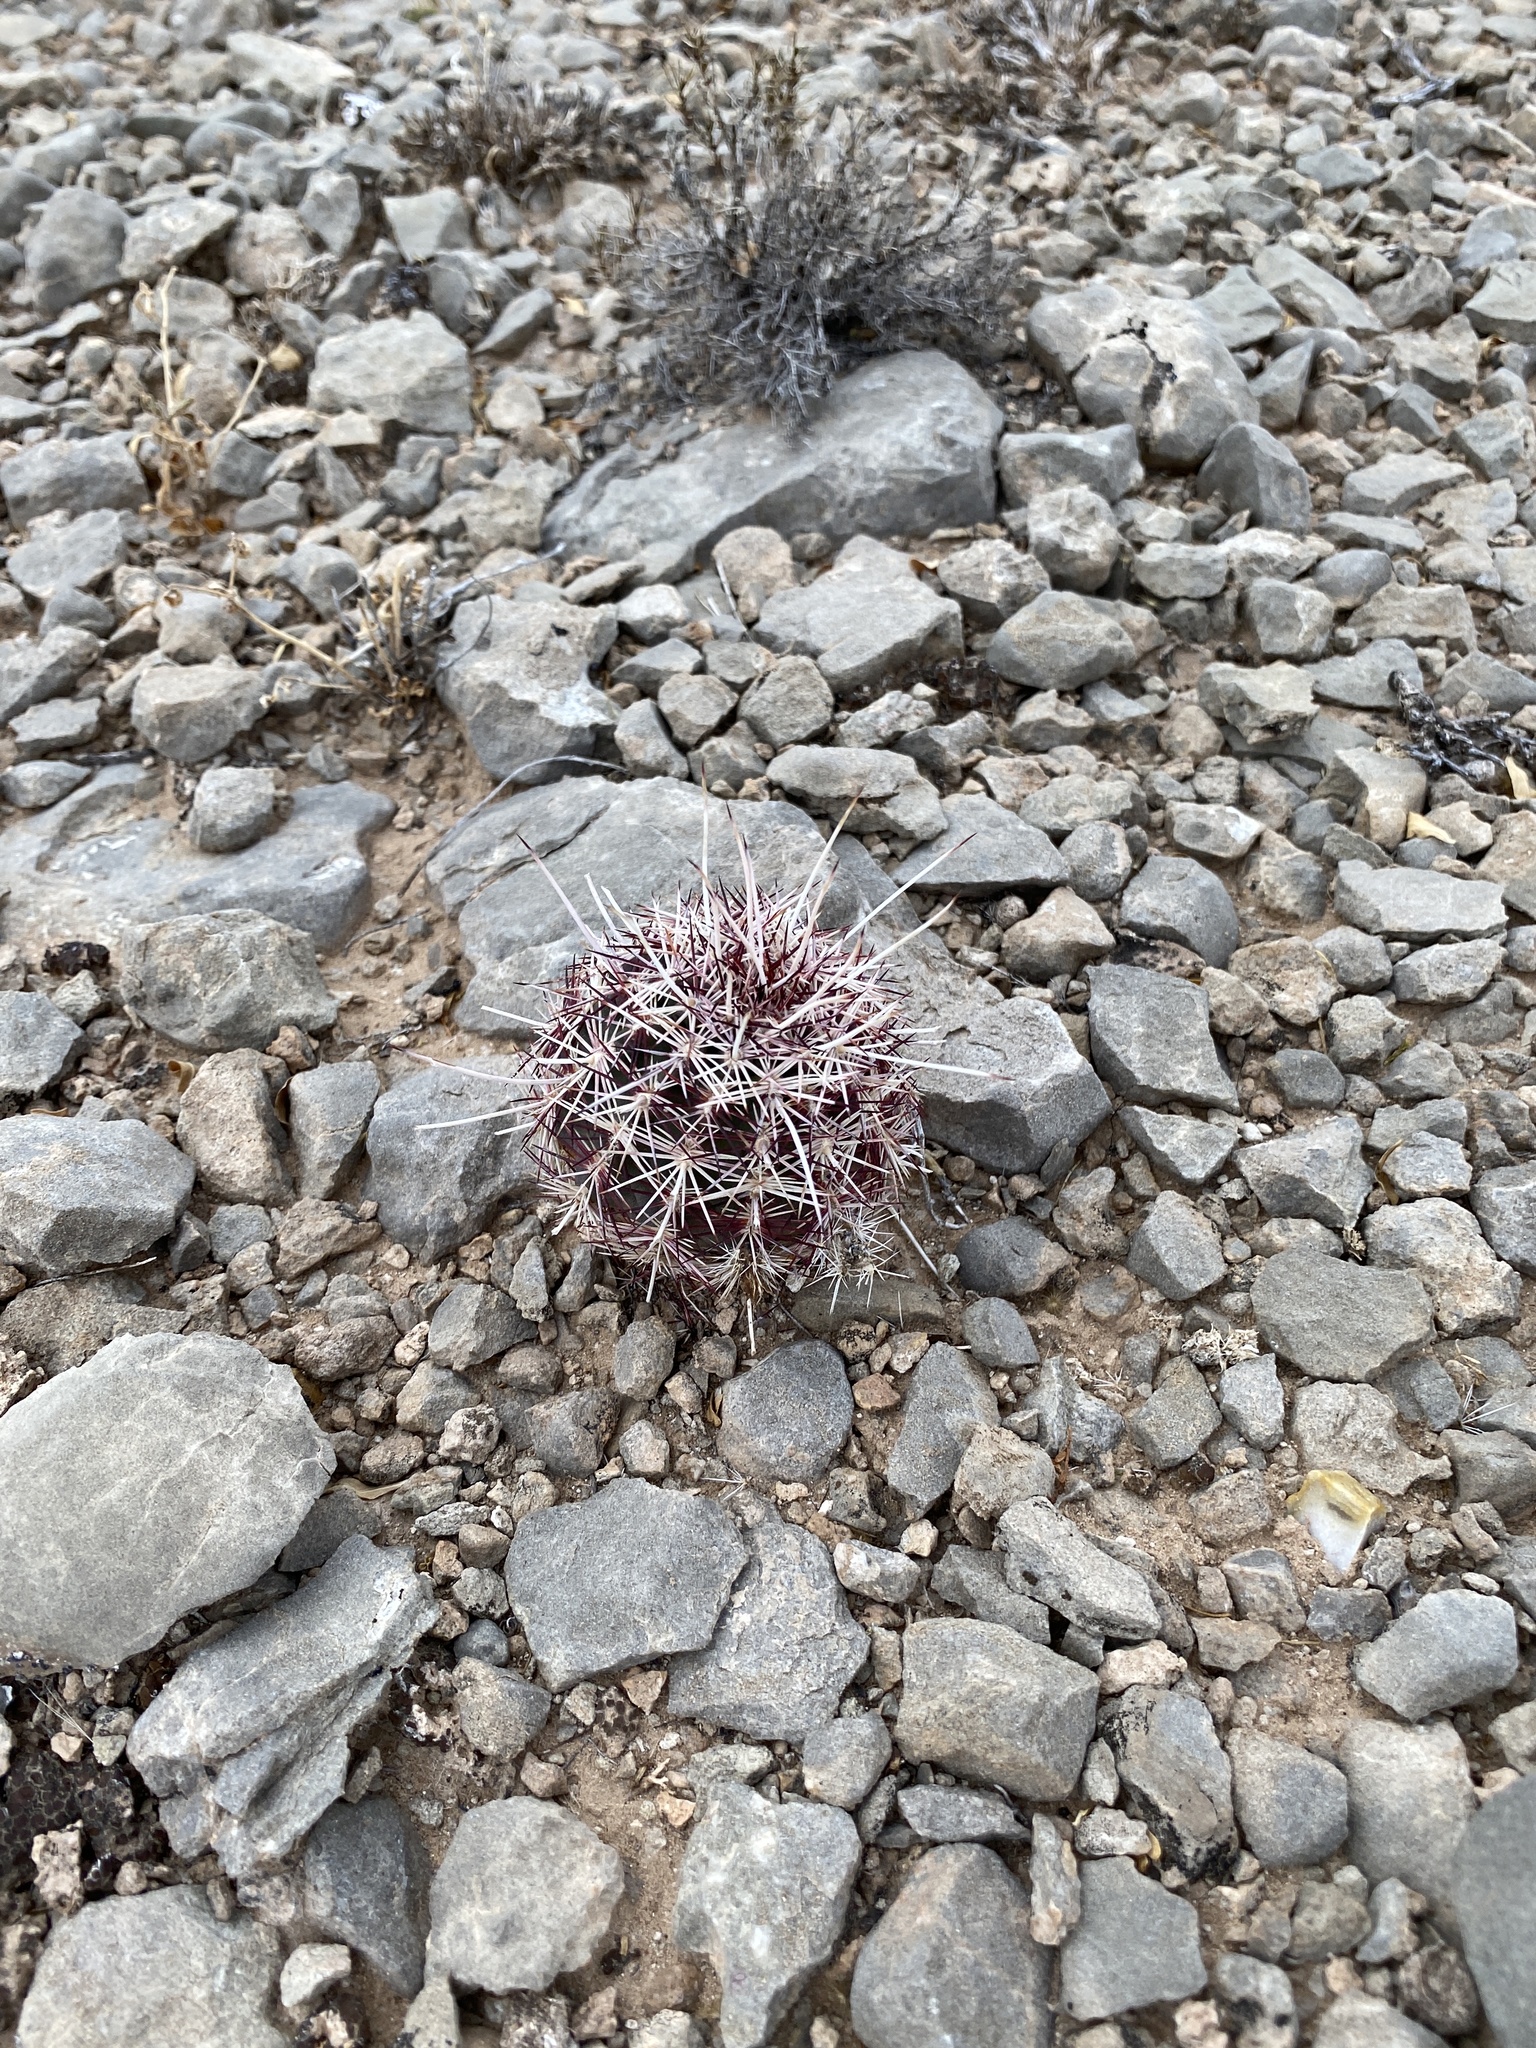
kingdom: Plantae
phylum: Tracheophyta
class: Magnoliopsida
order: Caryophyllales
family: Cactaceae
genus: Echinocereus
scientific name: Echinocereus viridiflorus
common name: Nylon hedgehog cactus
